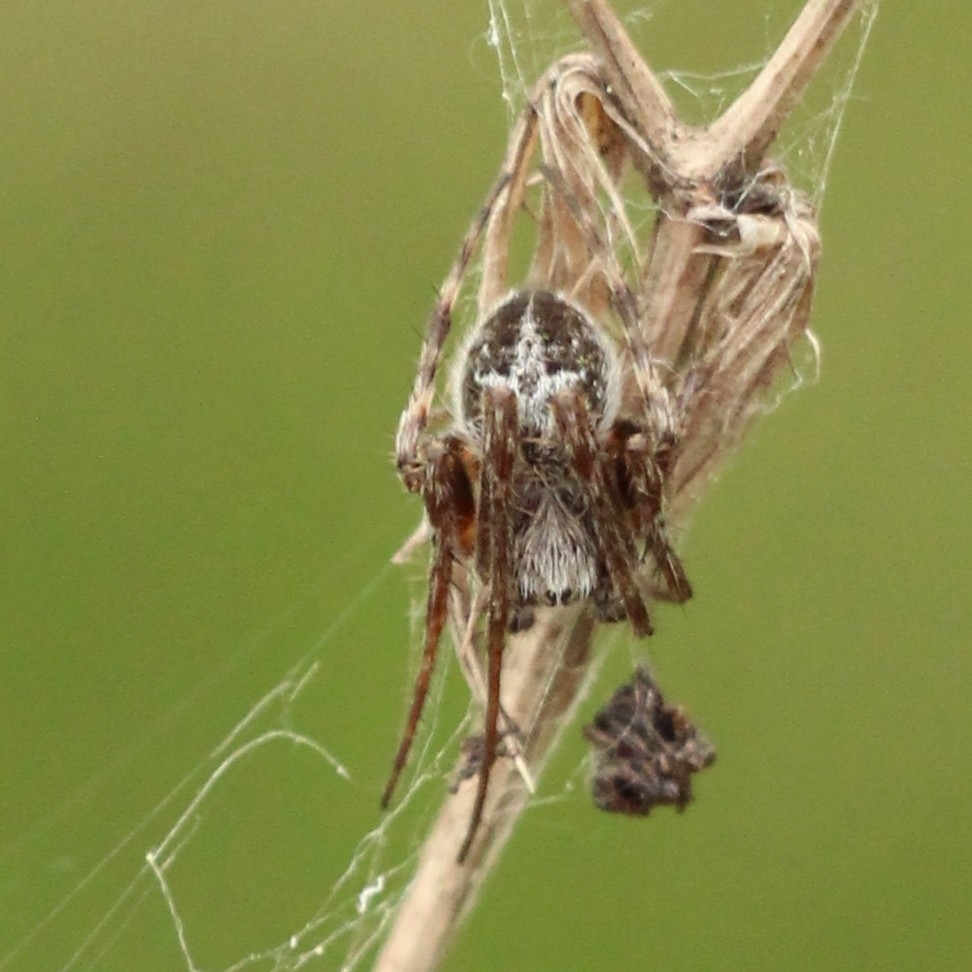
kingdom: Animalia
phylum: Arthropoda
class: Arachnida
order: Araneae
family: Araneidae
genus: Agalenatea
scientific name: Agalenatea redii
